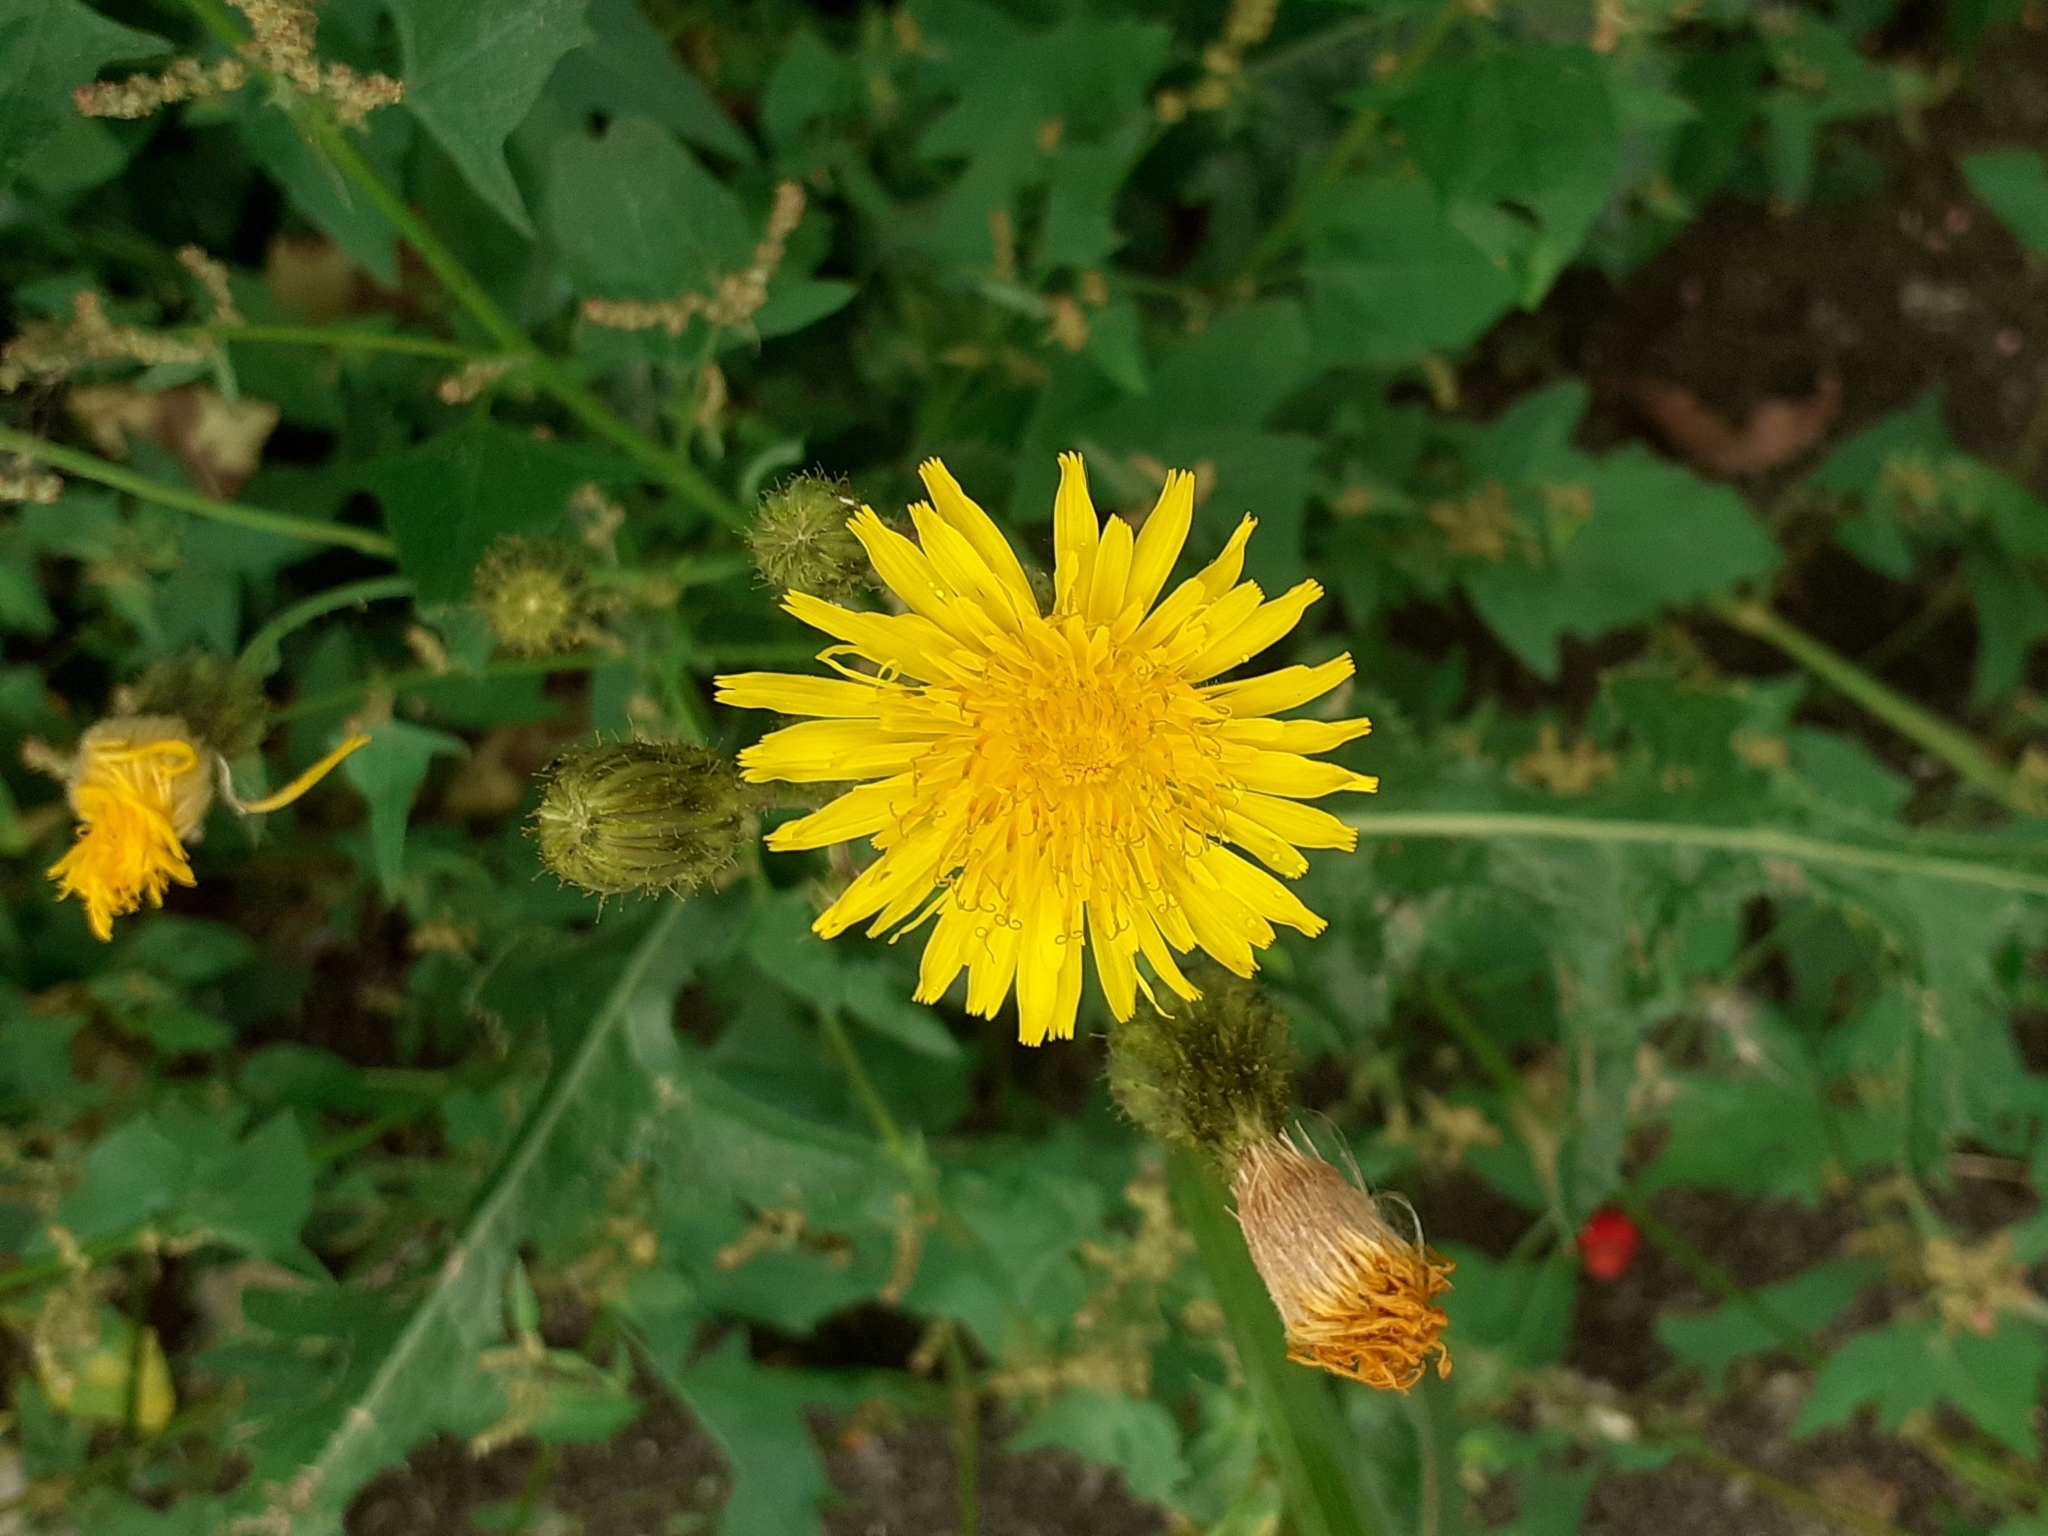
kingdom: Plantae
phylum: Tracheophyta
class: Magnoliopsida
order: Asterales
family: Asteraceae
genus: Sonchus
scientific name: Sonchus arvensis
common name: Perennial sow-thistle
